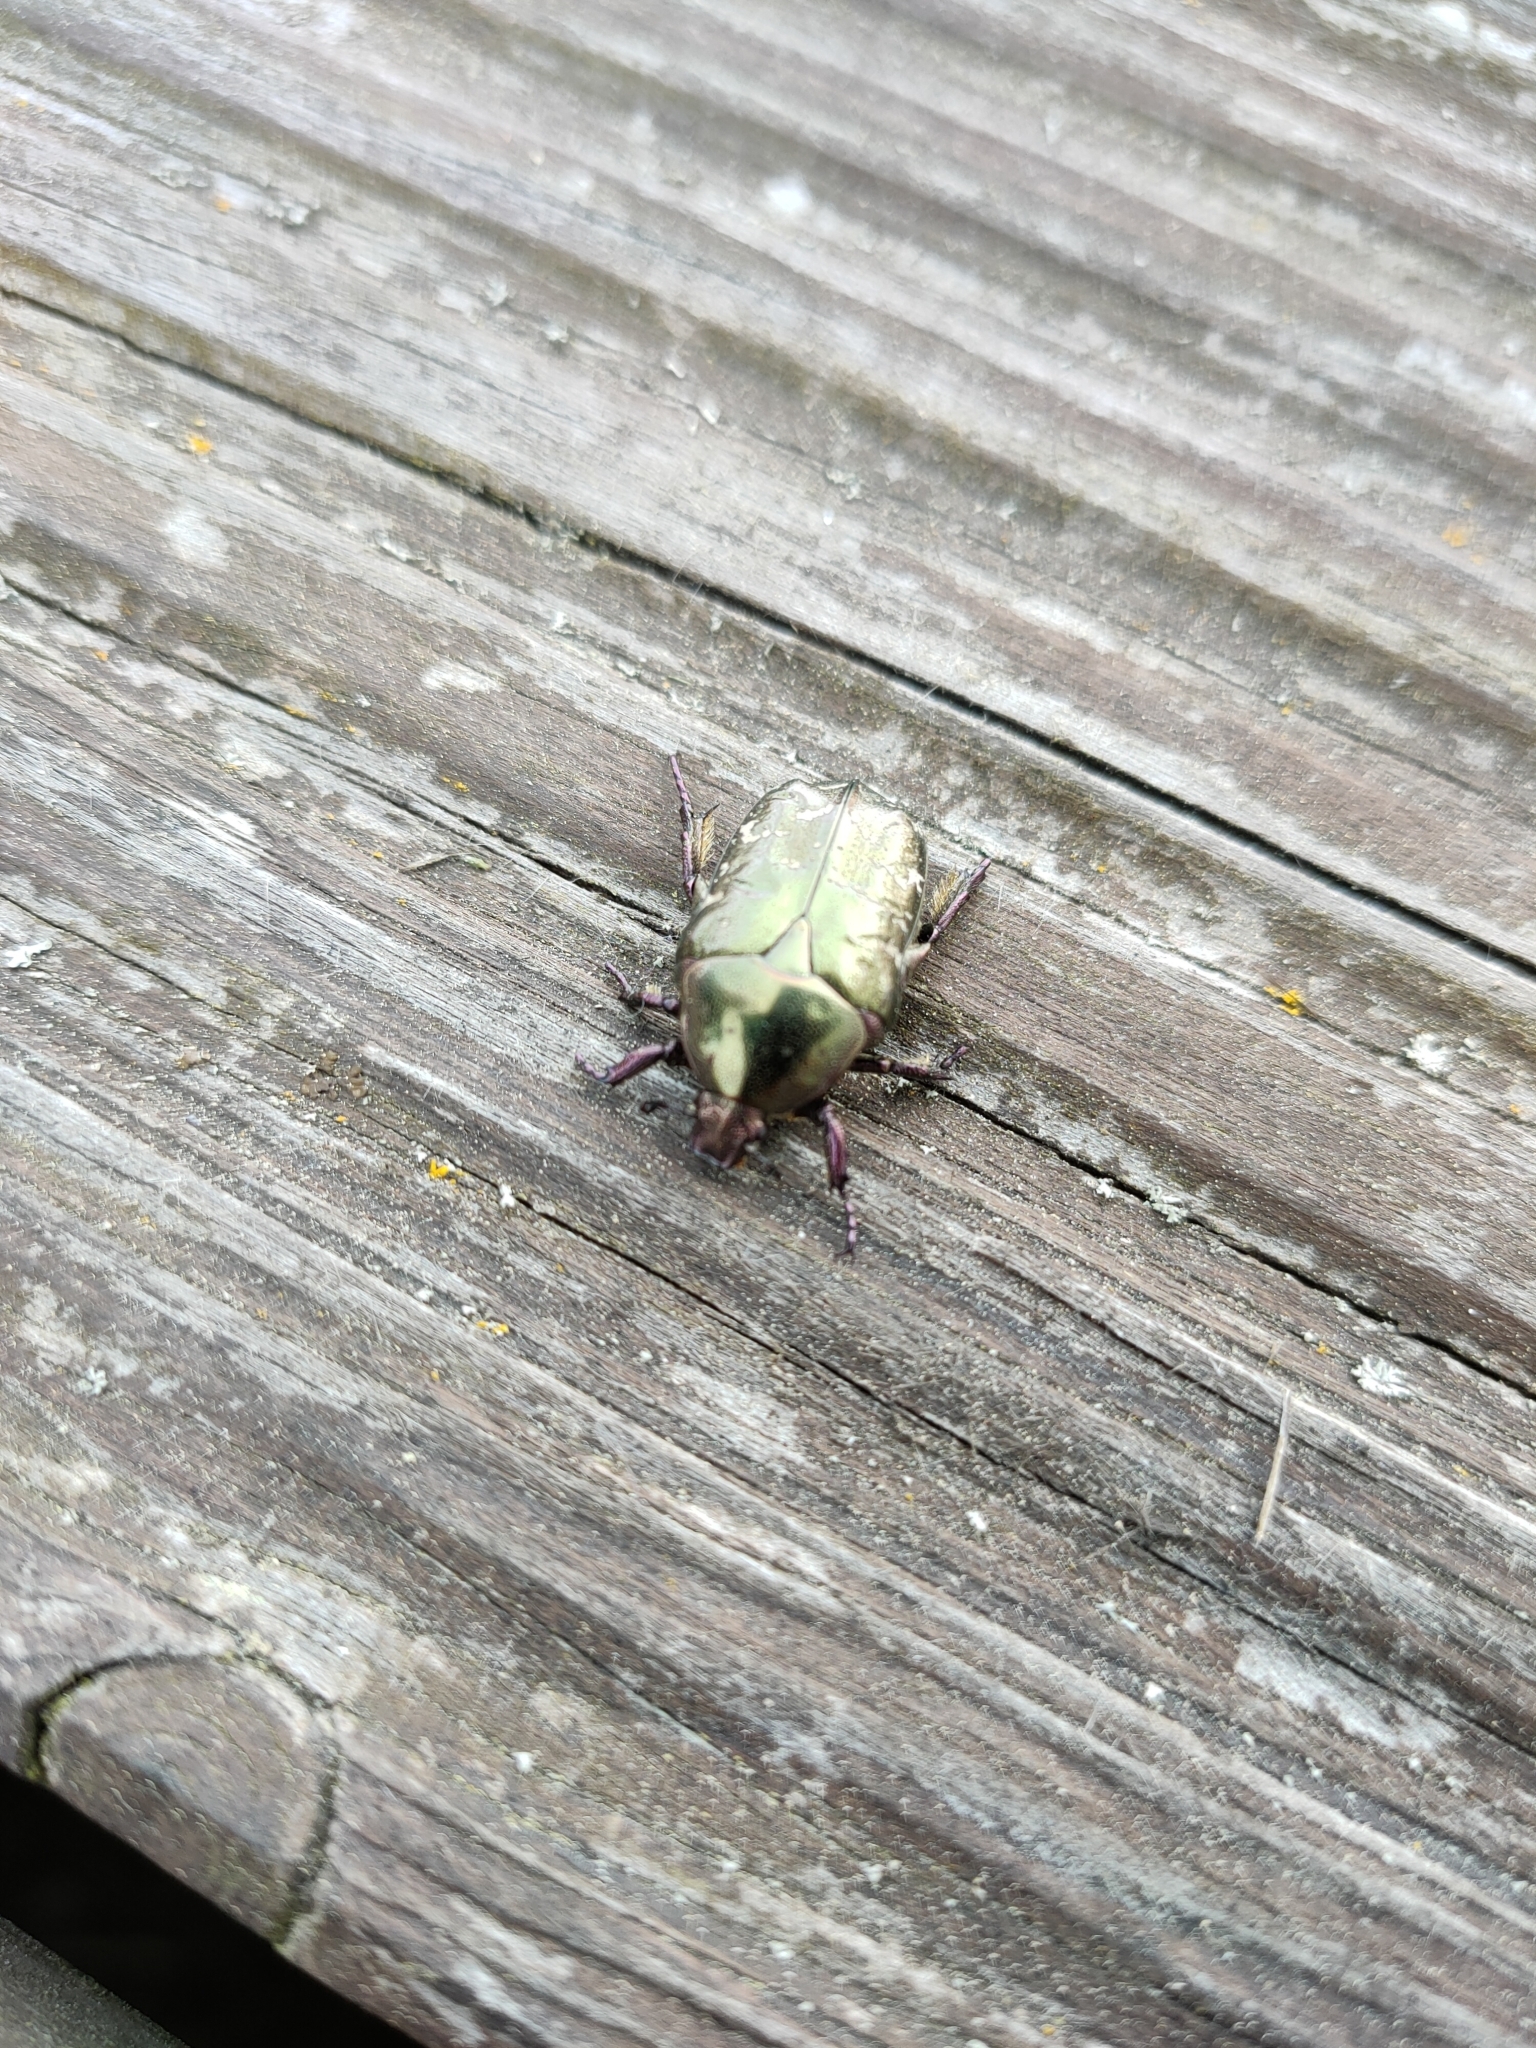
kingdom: Animalia
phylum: Arthropoda
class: Insecta
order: Coleoptera
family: Scarabaeidae
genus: Protaetia
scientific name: Protaetia cuprea
